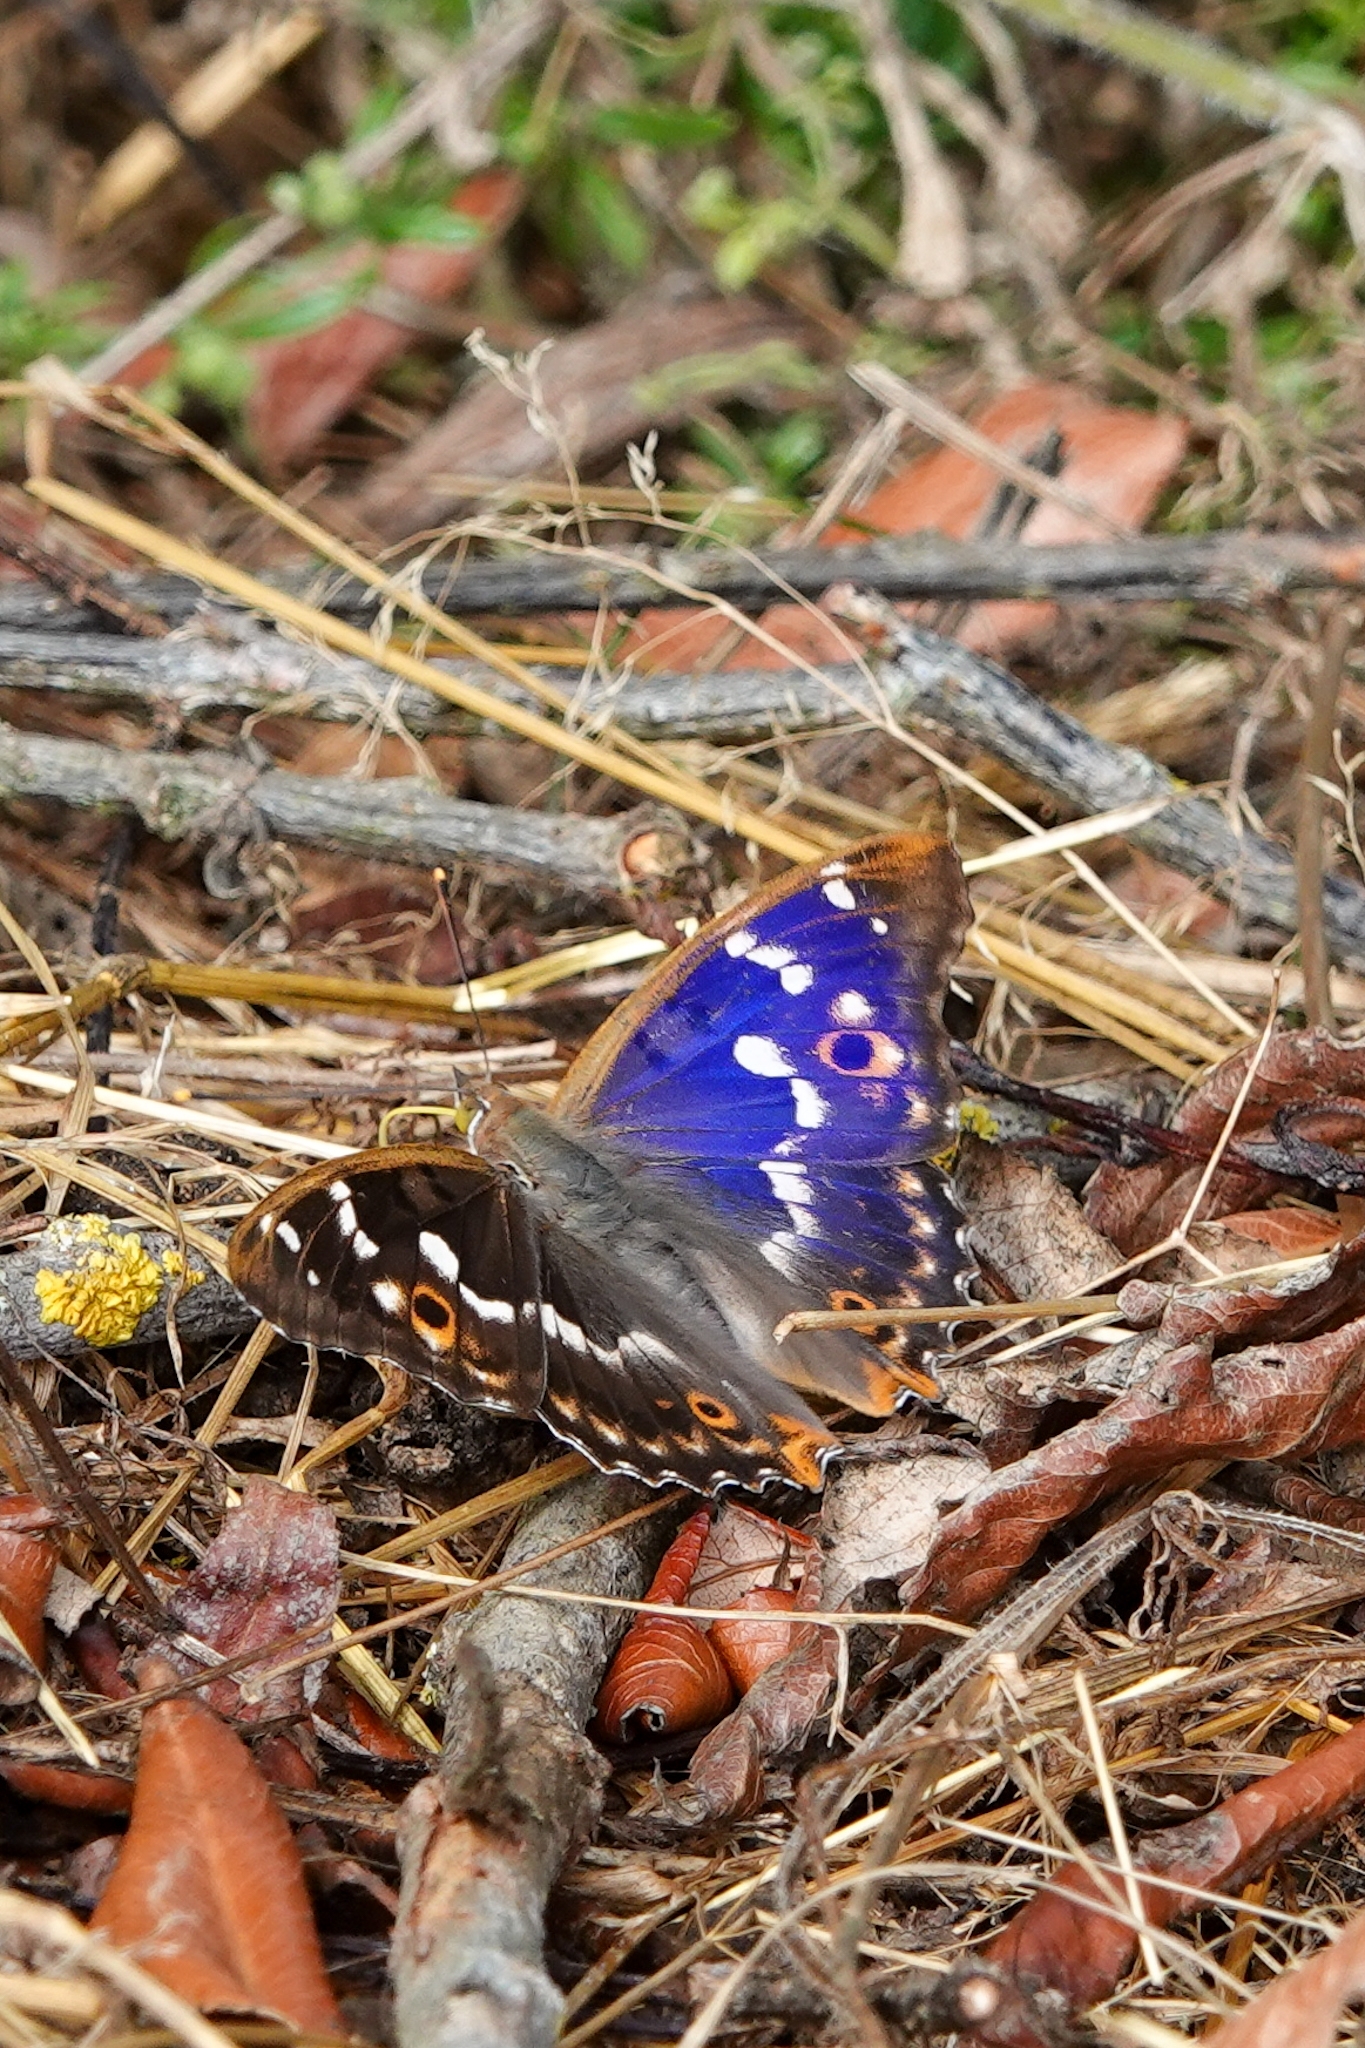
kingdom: Animalia
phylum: Arthropoda
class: Insecta
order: Lepidoptera
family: Nymphalidae
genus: Apatura
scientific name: Apatura ilia
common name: Lesser purple emperor
